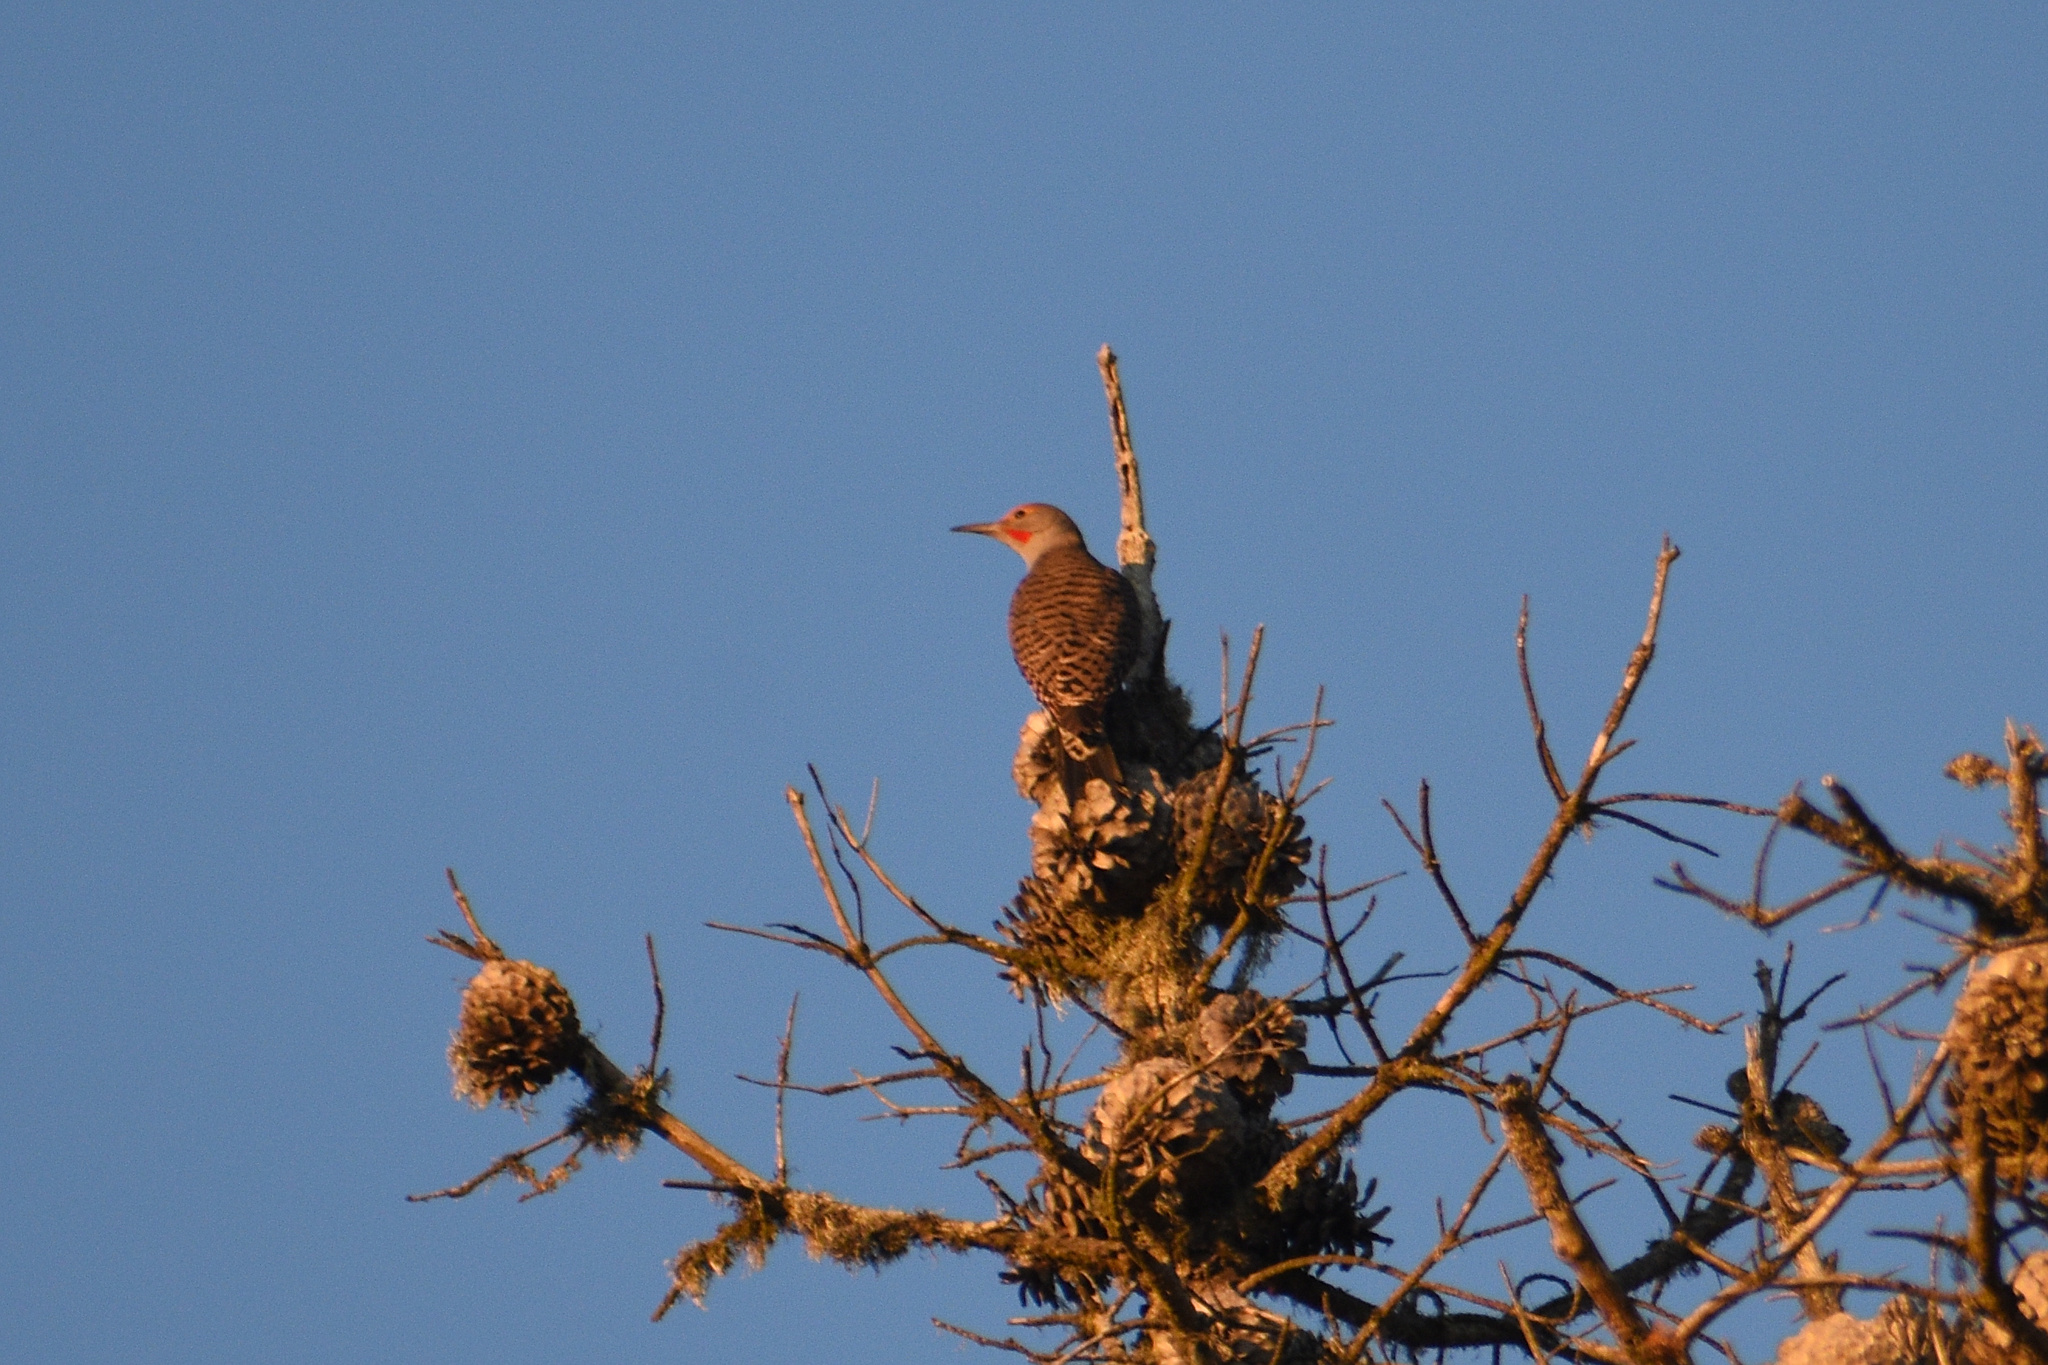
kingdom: Animalia
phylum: Chordata
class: Aves
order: Piciformes
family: Picidae
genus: Colaptes
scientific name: Colaptes auratus
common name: Northern flicker
